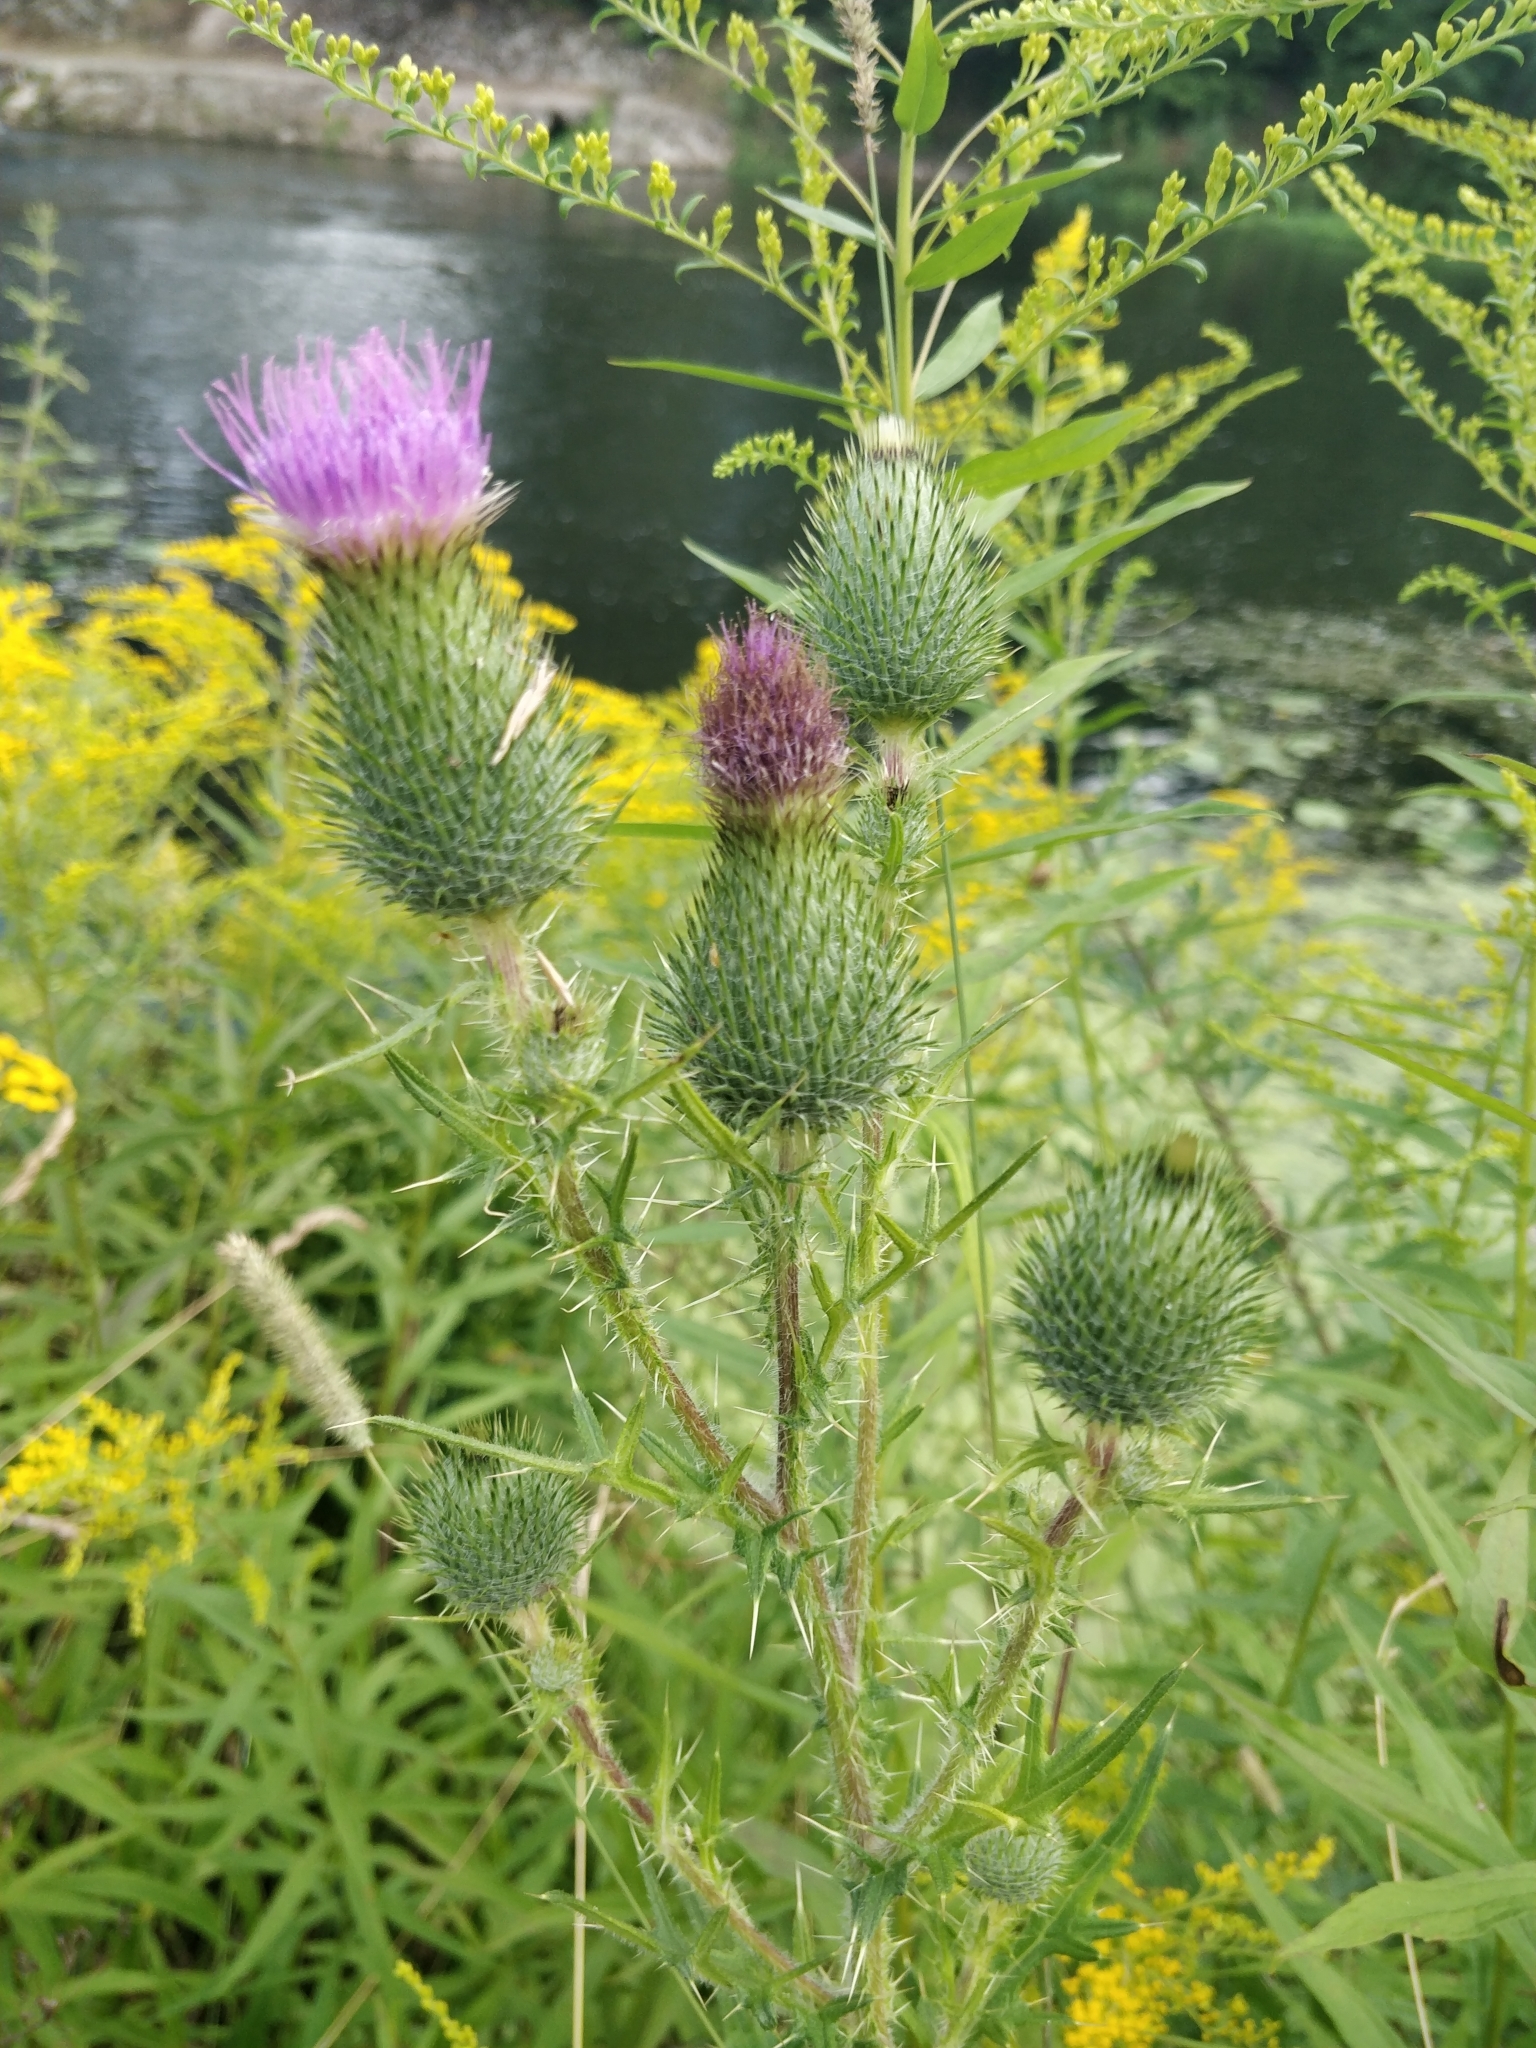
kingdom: Plantae
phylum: Tracheophyta
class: Magnoliopsida
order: Asterales
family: Asteraceae
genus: Cirsium
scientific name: Cirsium vulgare
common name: Bull thistle
